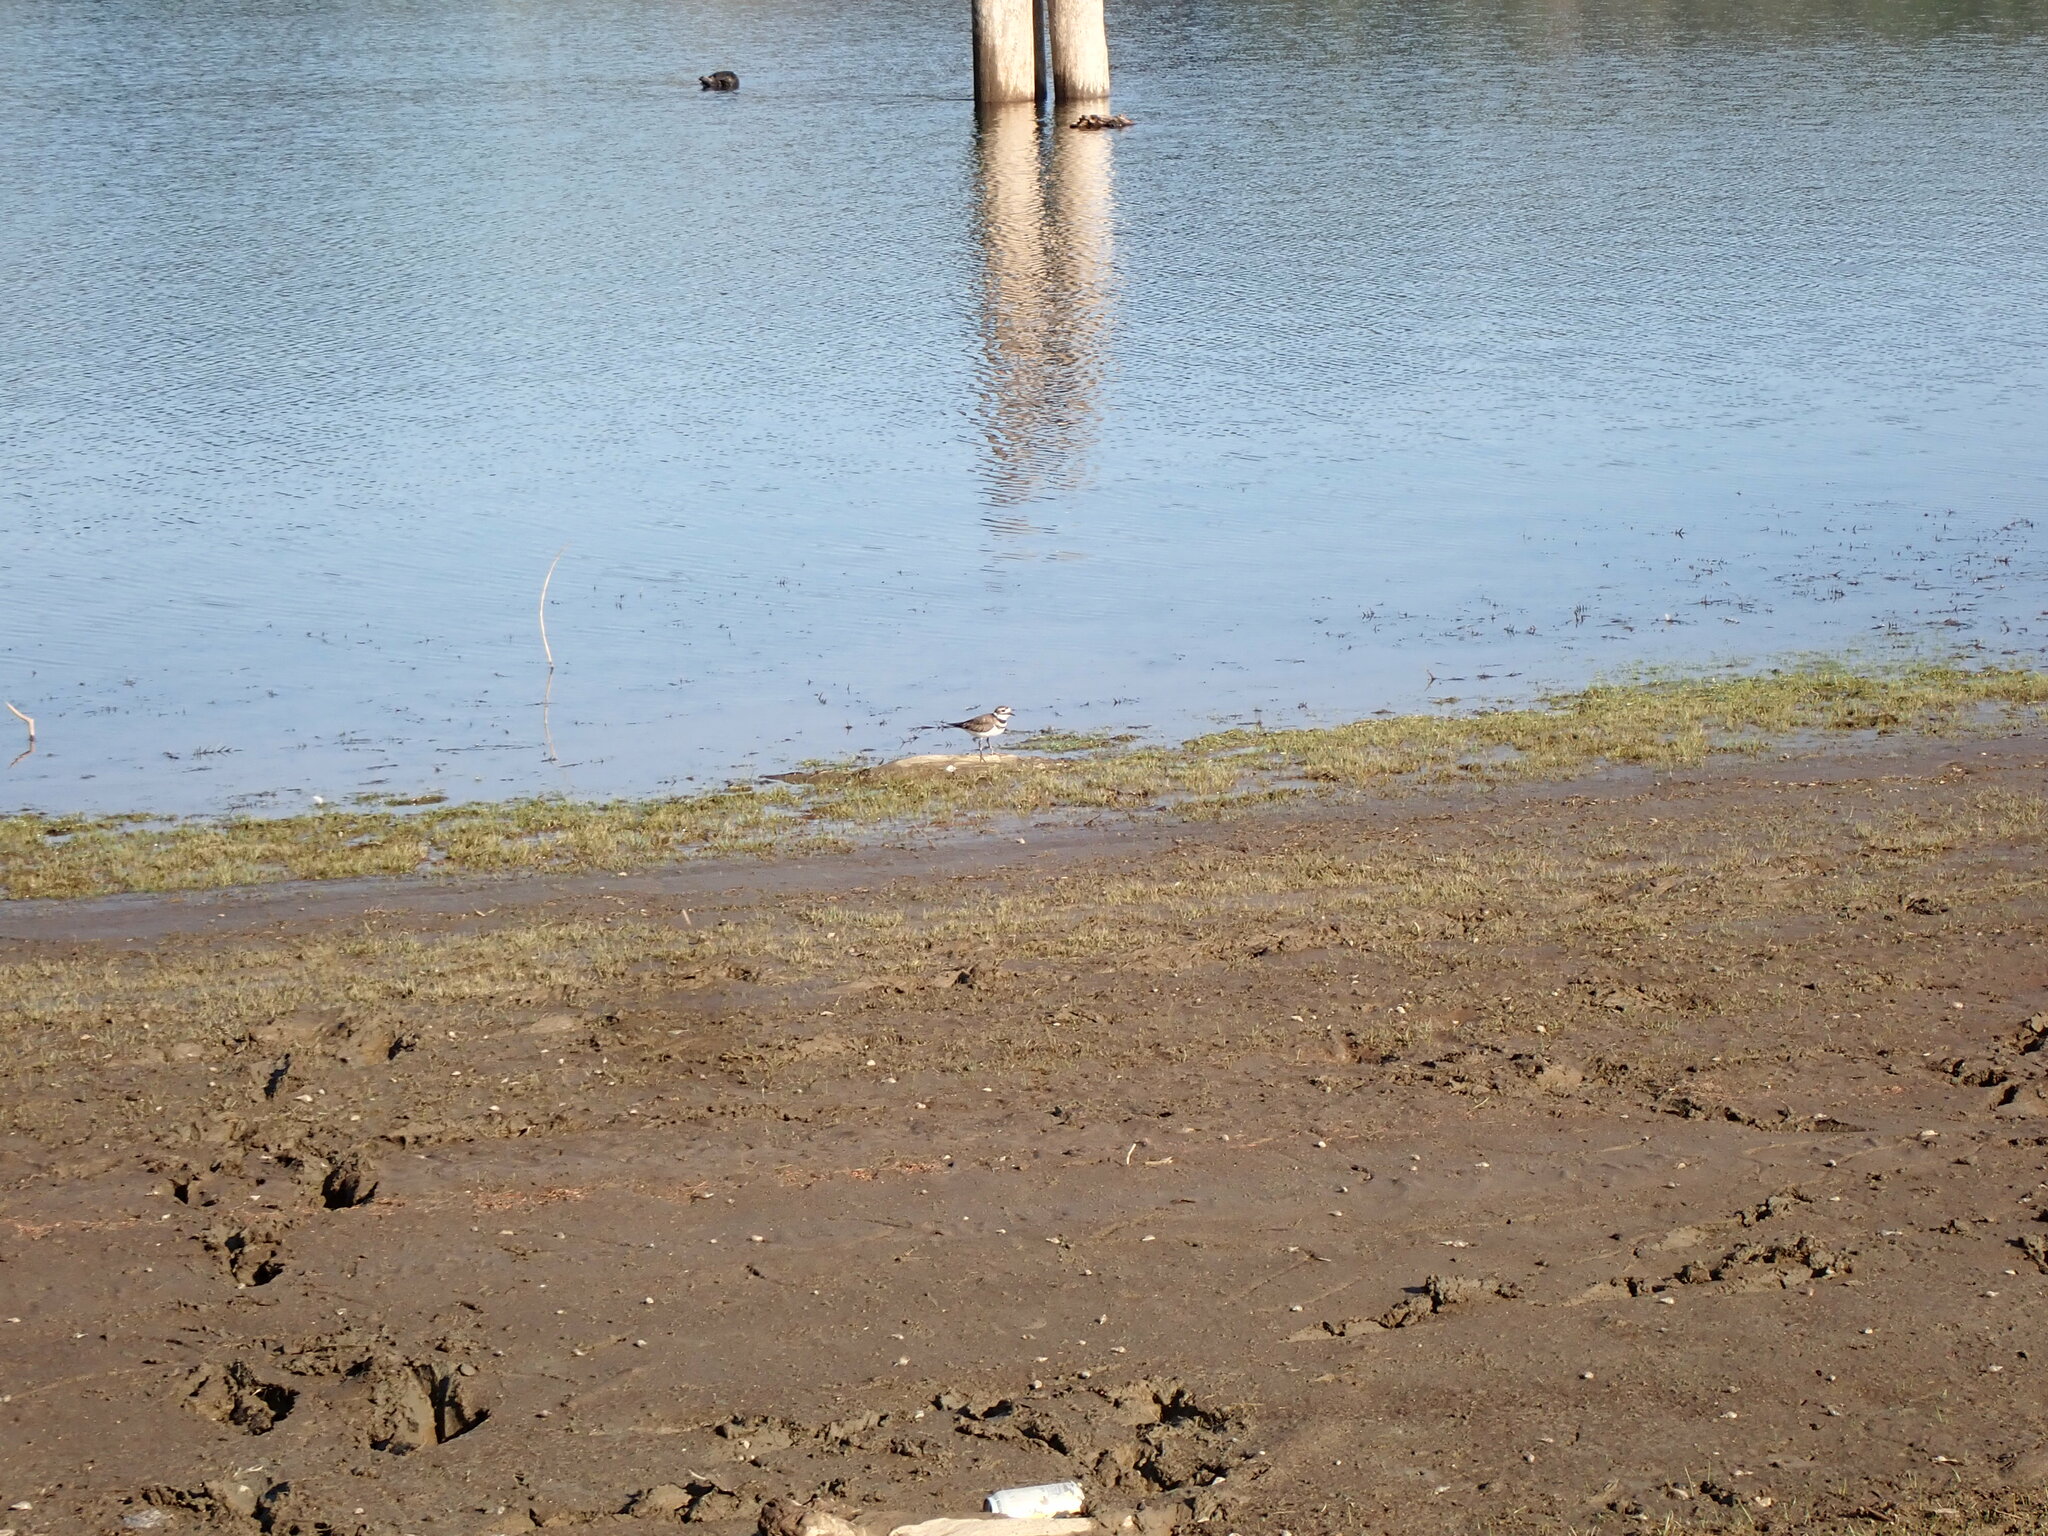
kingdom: Animalia
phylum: Chordata
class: Aves
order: Charadriiformes
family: Charadriidae
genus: Charadrius
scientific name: Charadrius vociferus
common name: Killdeer
